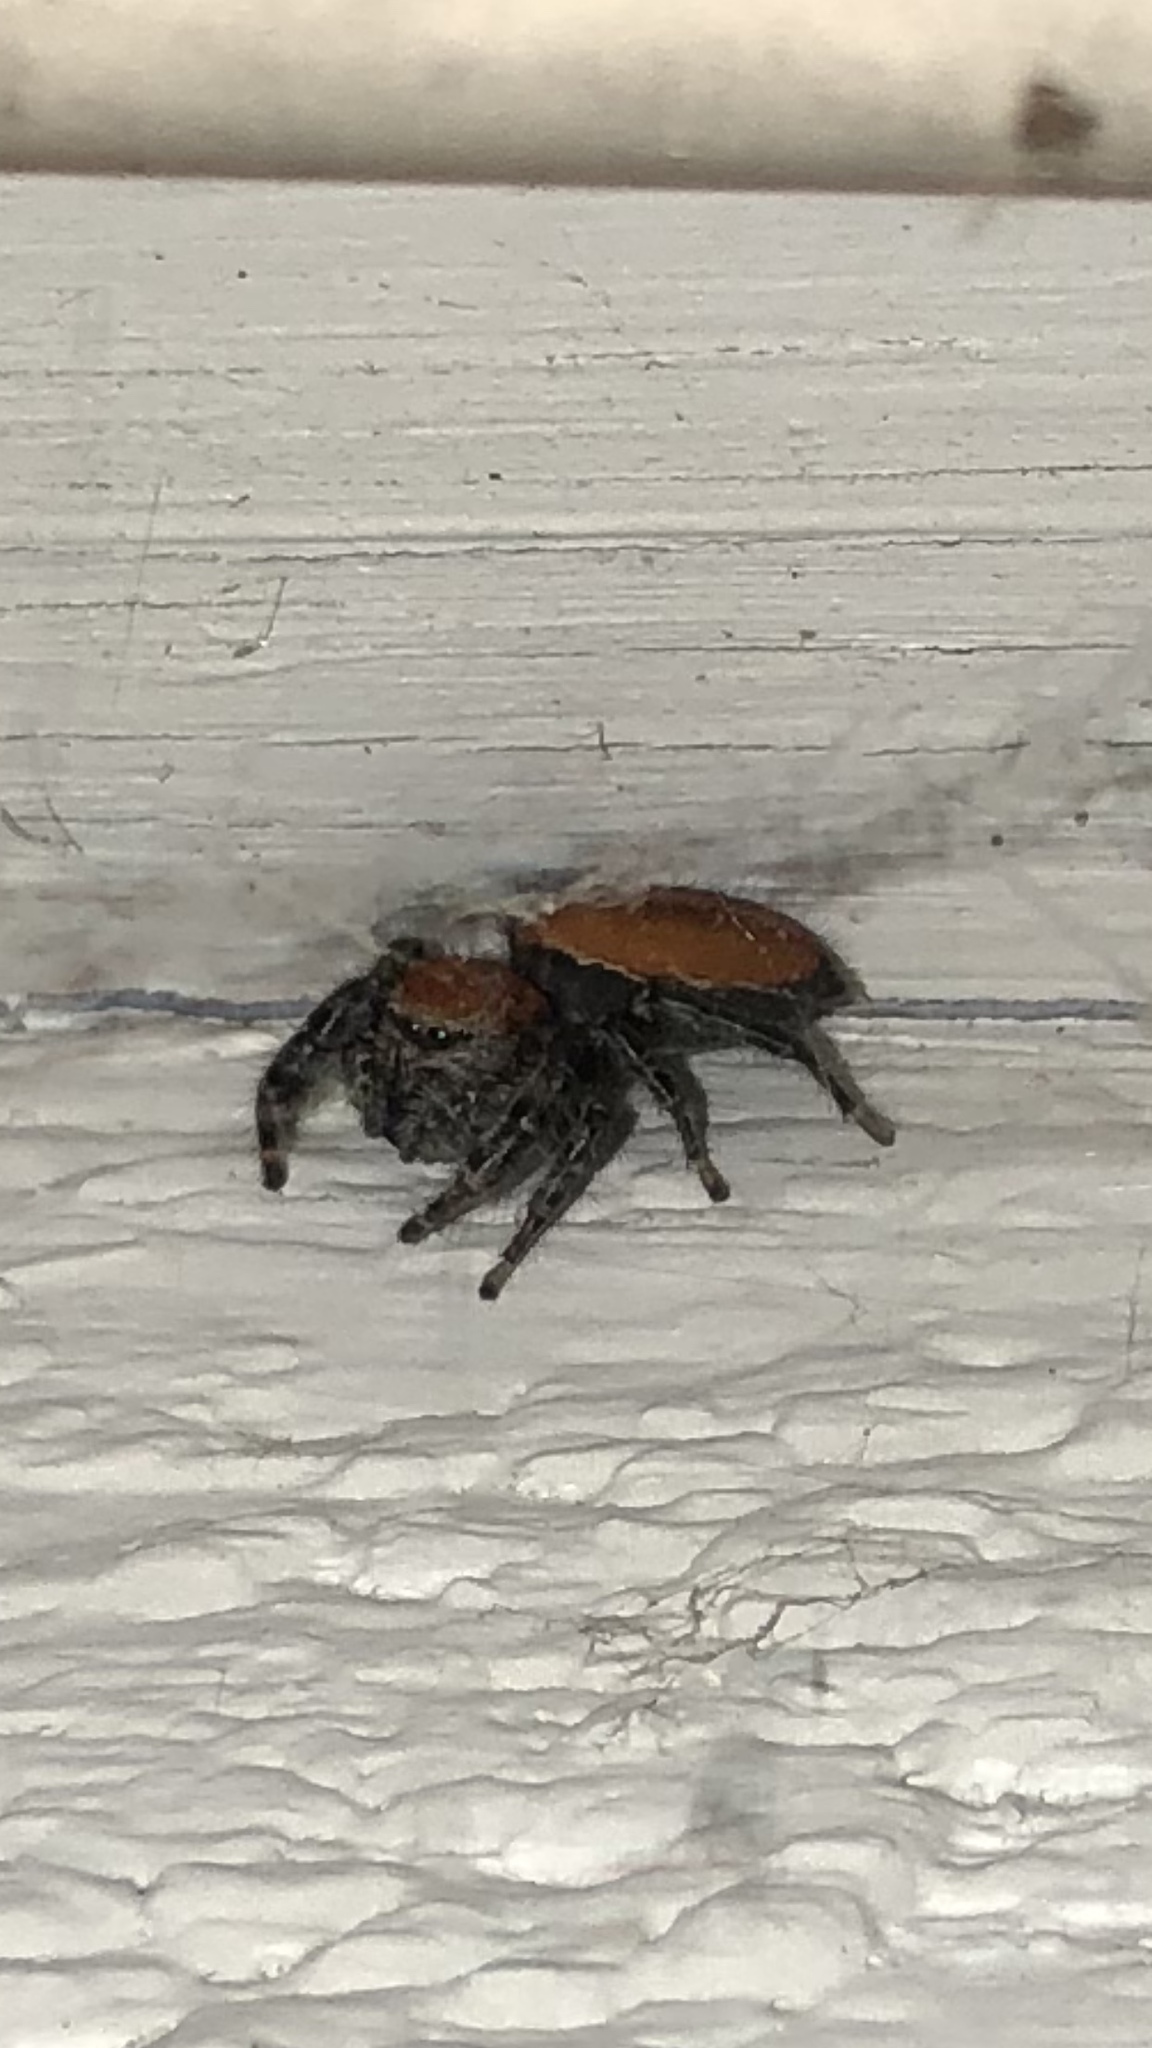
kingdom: Animalia
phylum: Arthropoda
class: Arachnida
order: Araneae
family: Salticidae
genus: Phidippus
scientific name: Phidippus cardinalis
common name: Cardinal jumper
